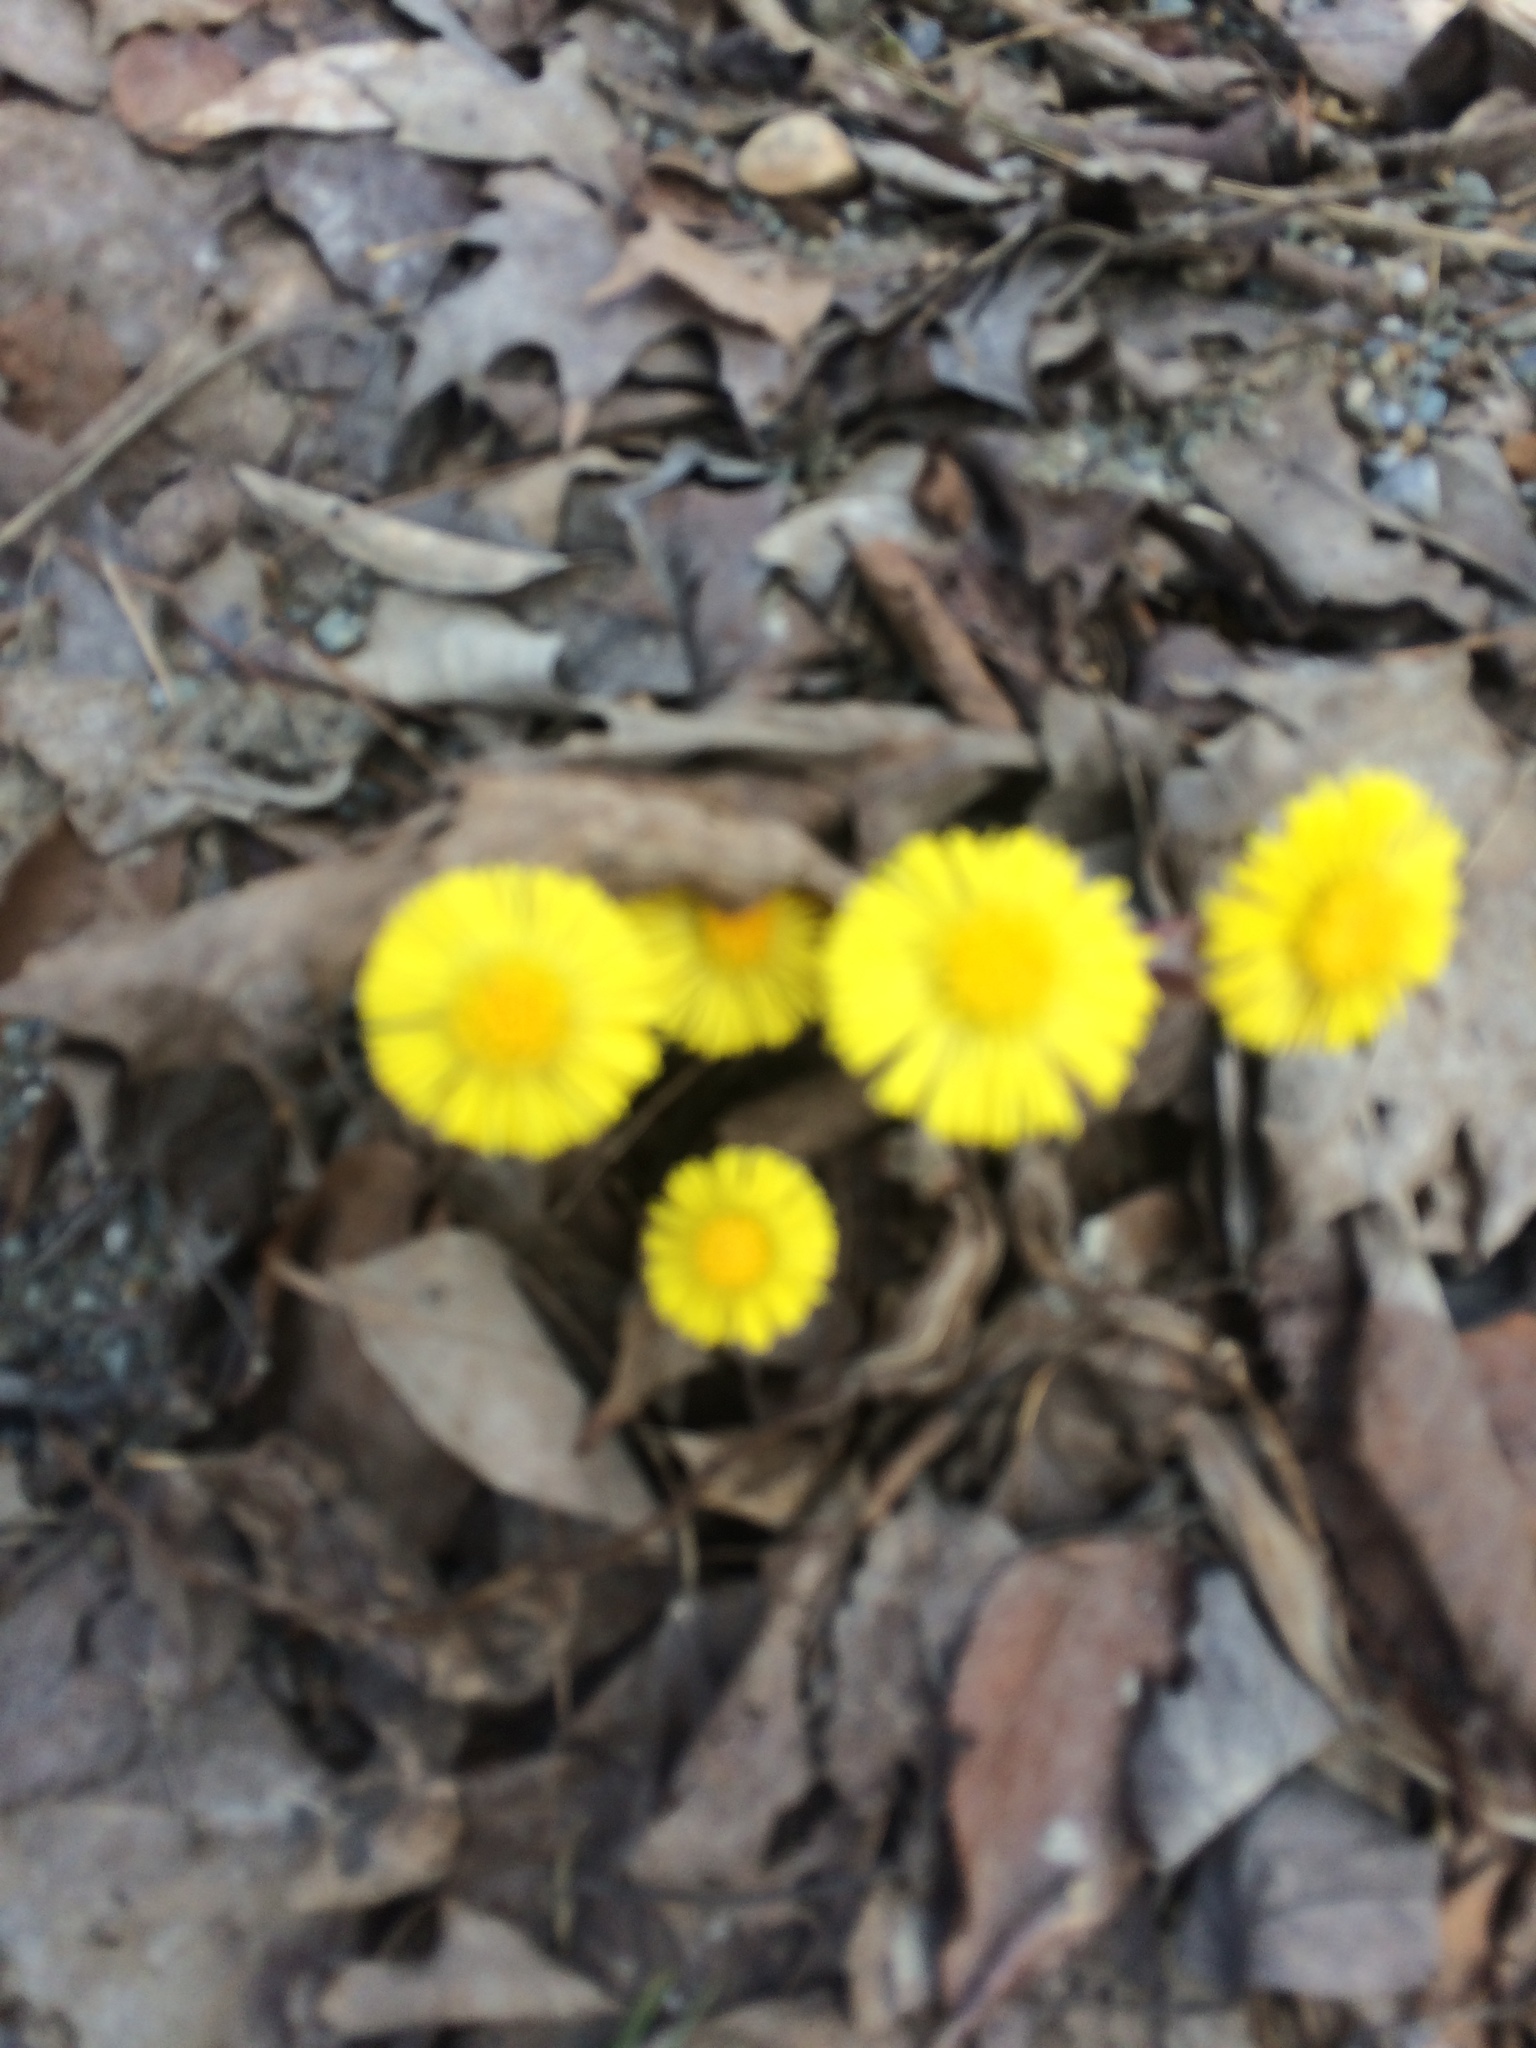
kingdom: Plantae
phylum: Tracheophyta
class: Magnoliopsida
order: Asterales
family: Asteraceae
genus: Tussilago
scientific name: Tussilago farfara
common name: Coltsfoot
